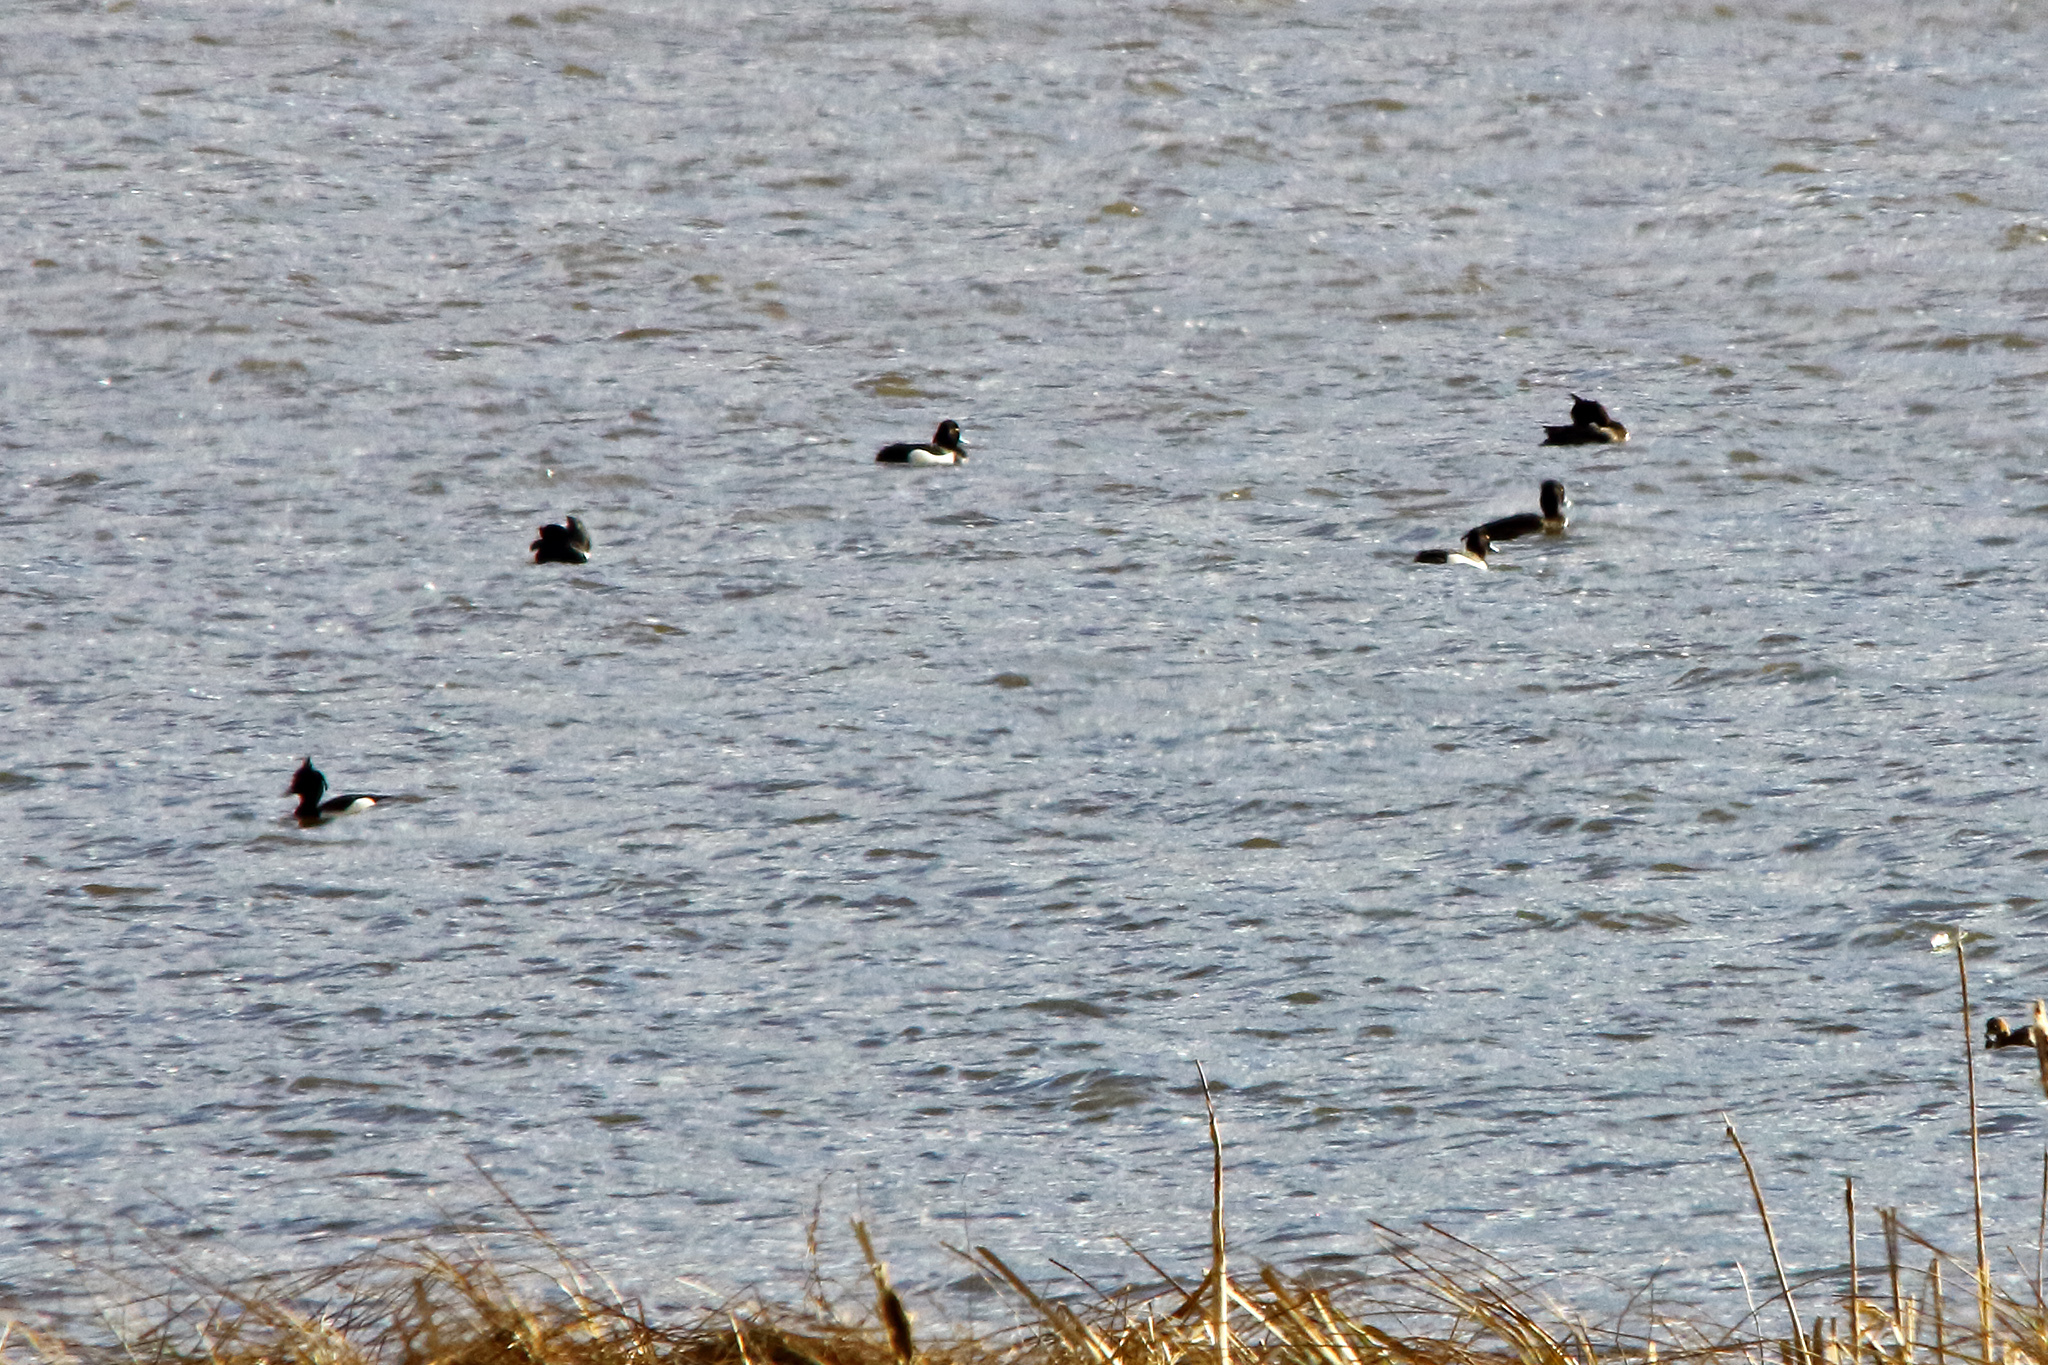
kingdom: Animalia
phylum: Chordata
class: Aves
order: Anseriformes
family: Anatidae
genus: Aythya
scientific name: Aythya fuligula
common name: Tufted duck
